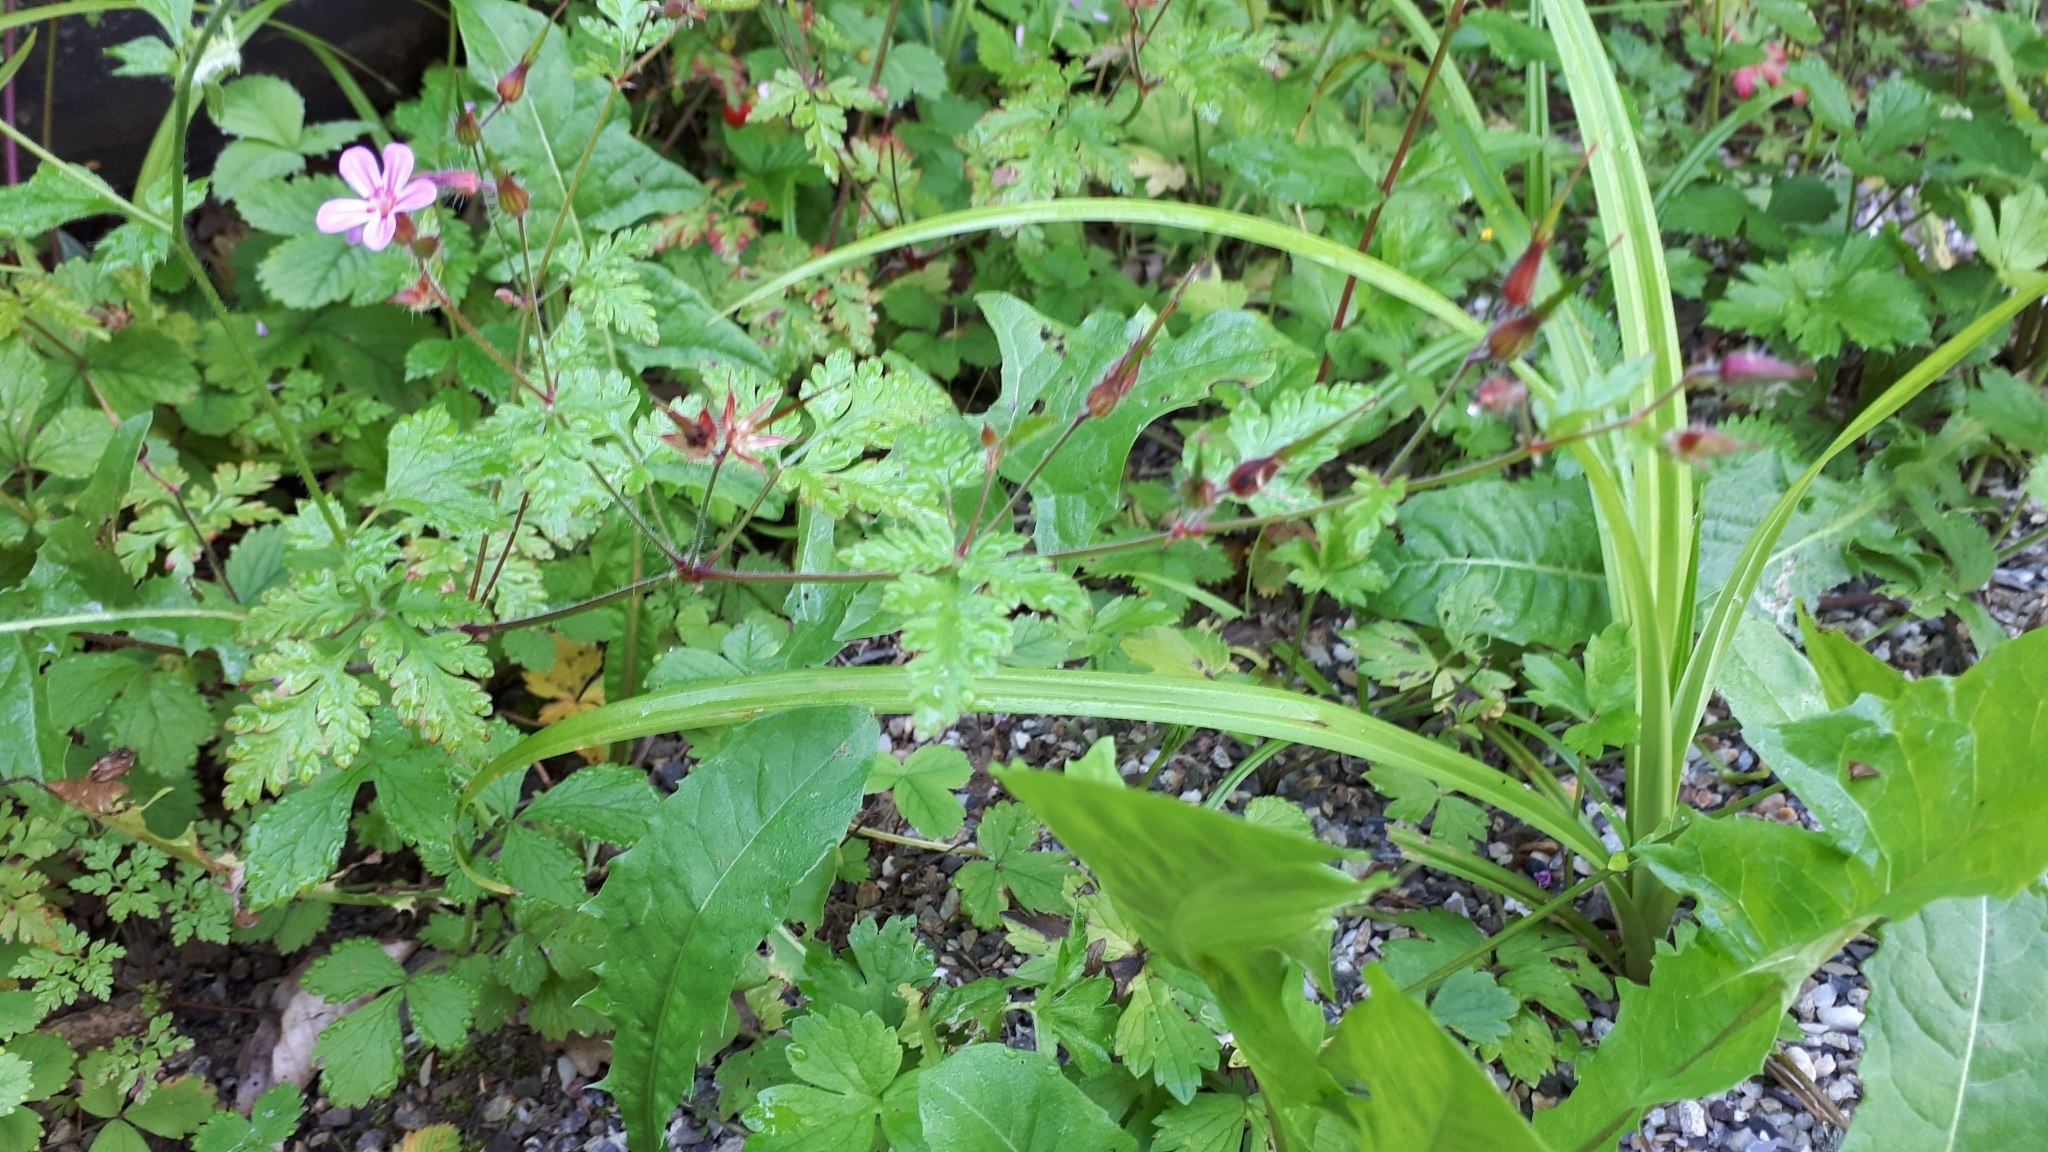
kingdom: Plantae
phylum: Tracheophyta
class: Magnoliopsida
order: Geraniales
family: Geraniaceae
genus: Geranium
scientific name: Geranium robertianum
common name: Herb-robert
